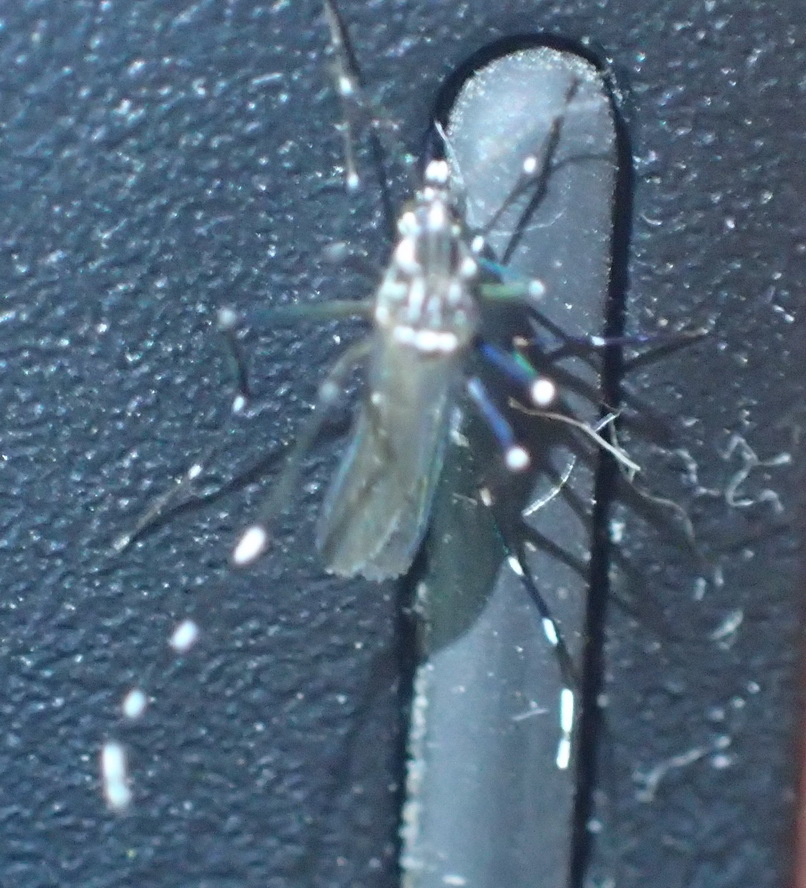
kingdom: Animalia
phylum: Arthropoda
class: Insecta
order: Diptera
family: Culicidae
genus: Aedes
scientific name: Aedes aegypti
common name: Yellow fever mosquito
